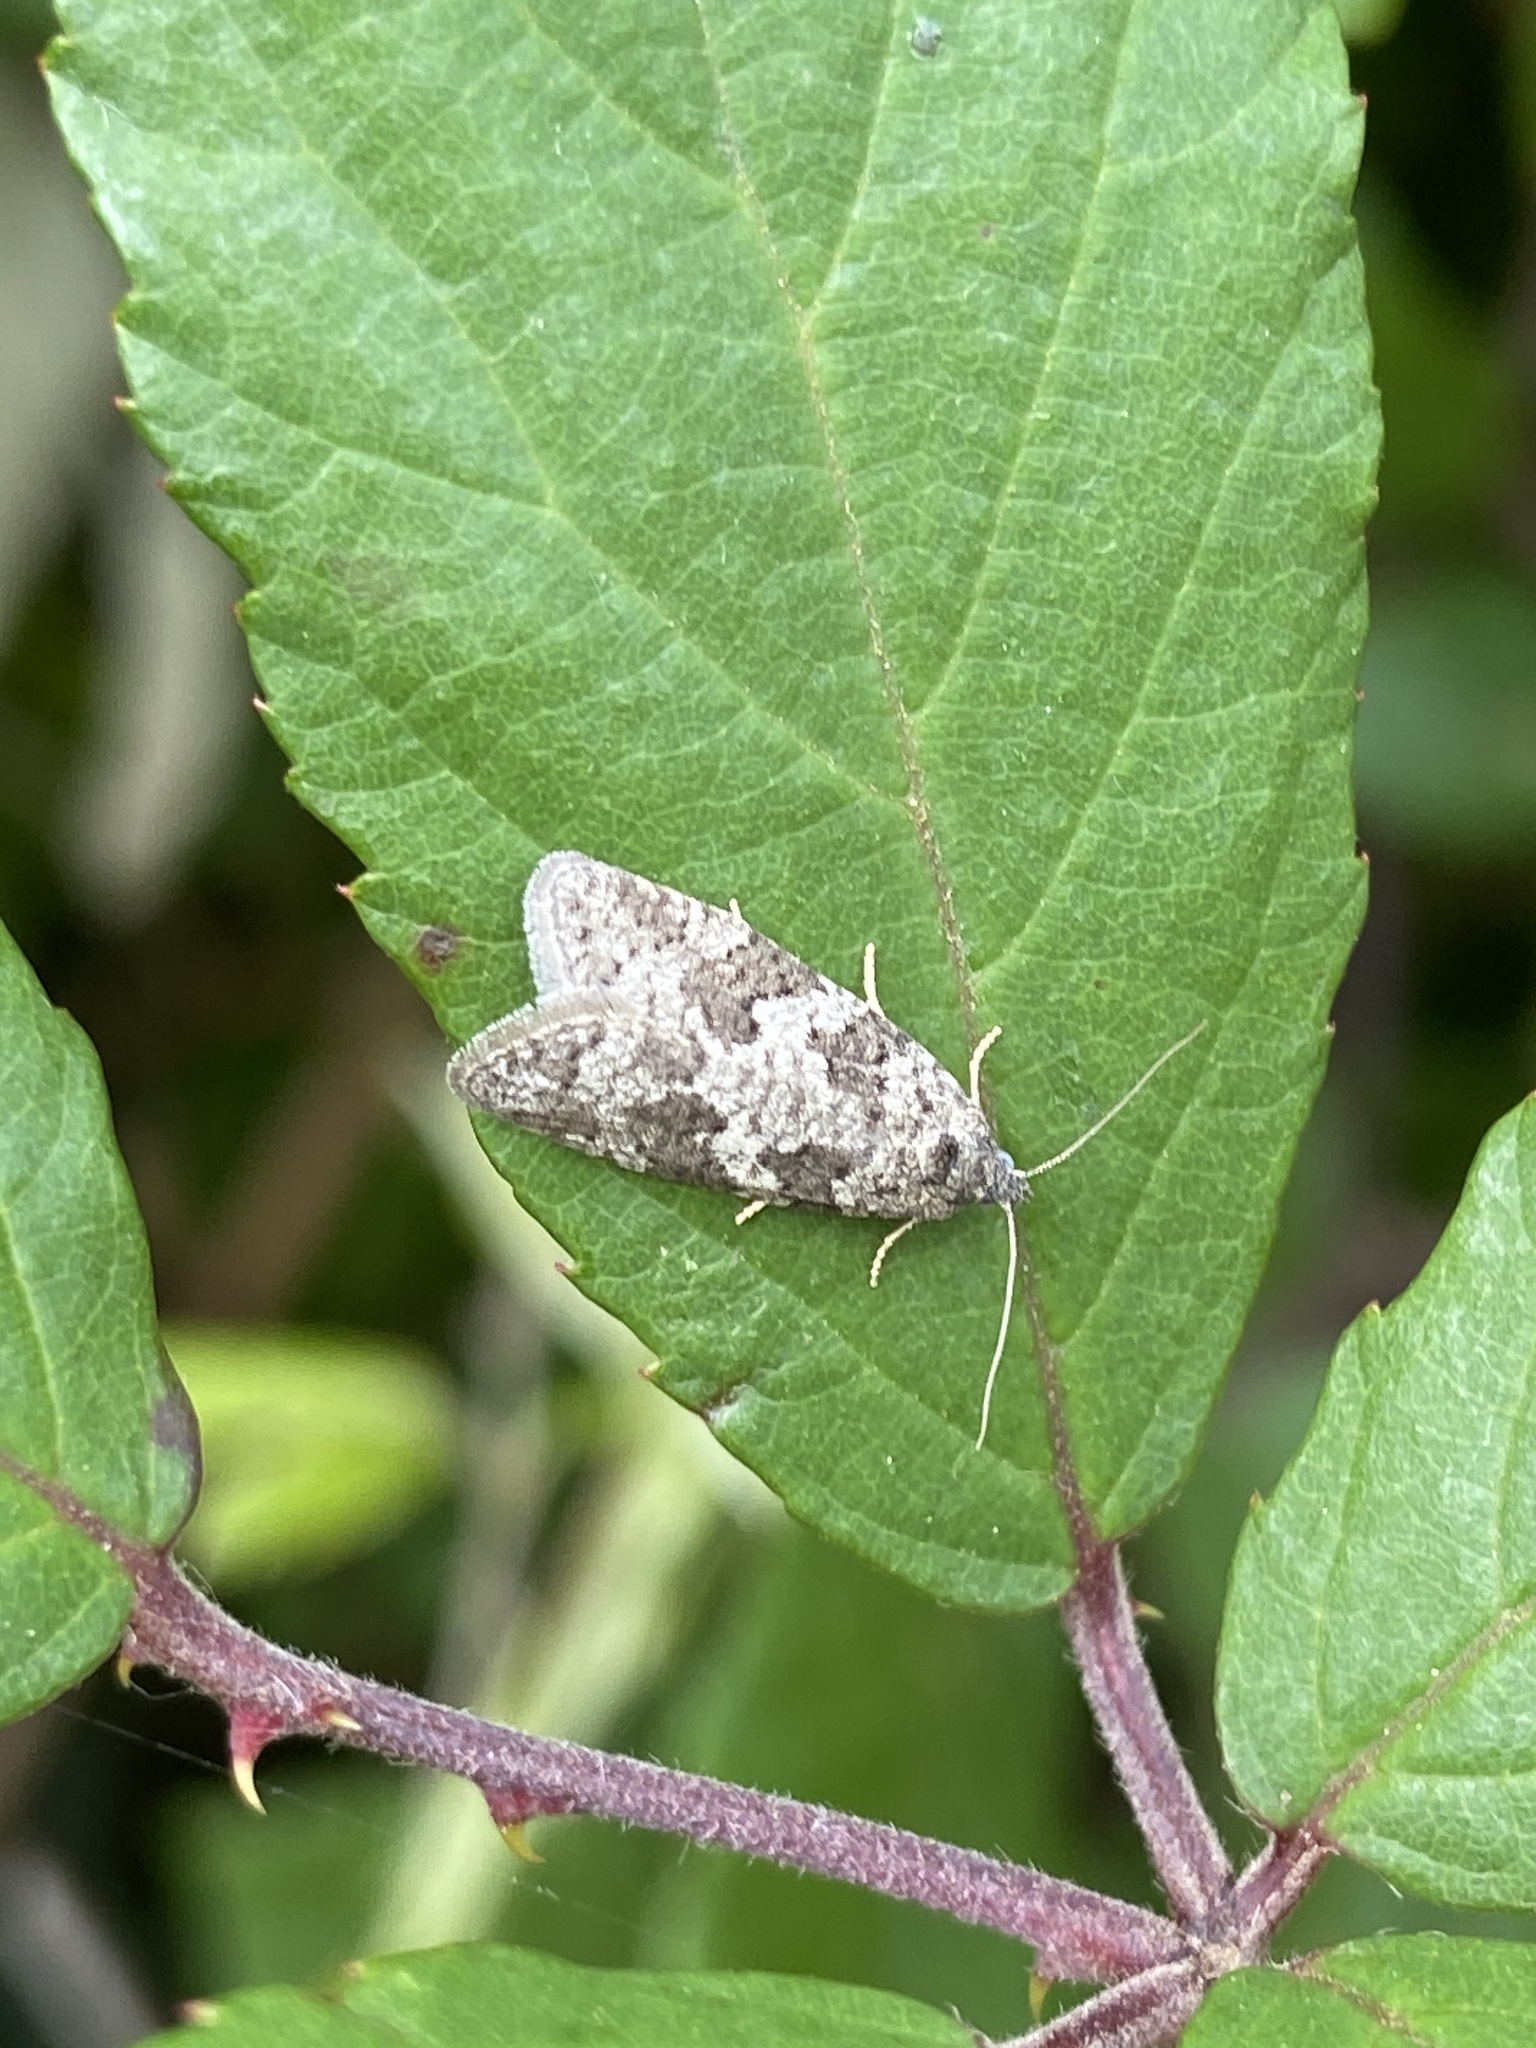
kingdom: Animalia
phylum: Arthropoda
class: Insecta
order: Lepidoptera
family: Tortricidae
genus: Cnephasia
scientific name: Cnephasia stephensiana
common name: Grey tortrix
